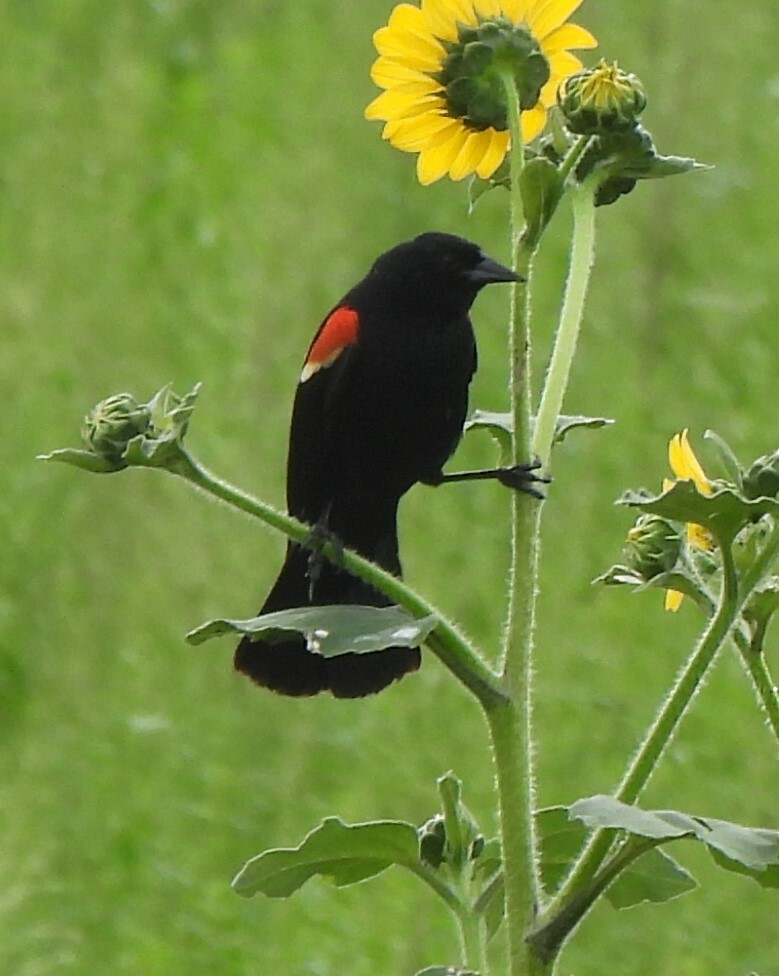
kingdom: Animalia
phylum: Chordata
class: Aves
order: Passeriformes
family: Icteridae
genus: Agelaius
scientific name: Agelaius phoeniceus
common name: Red-winged blackbird
